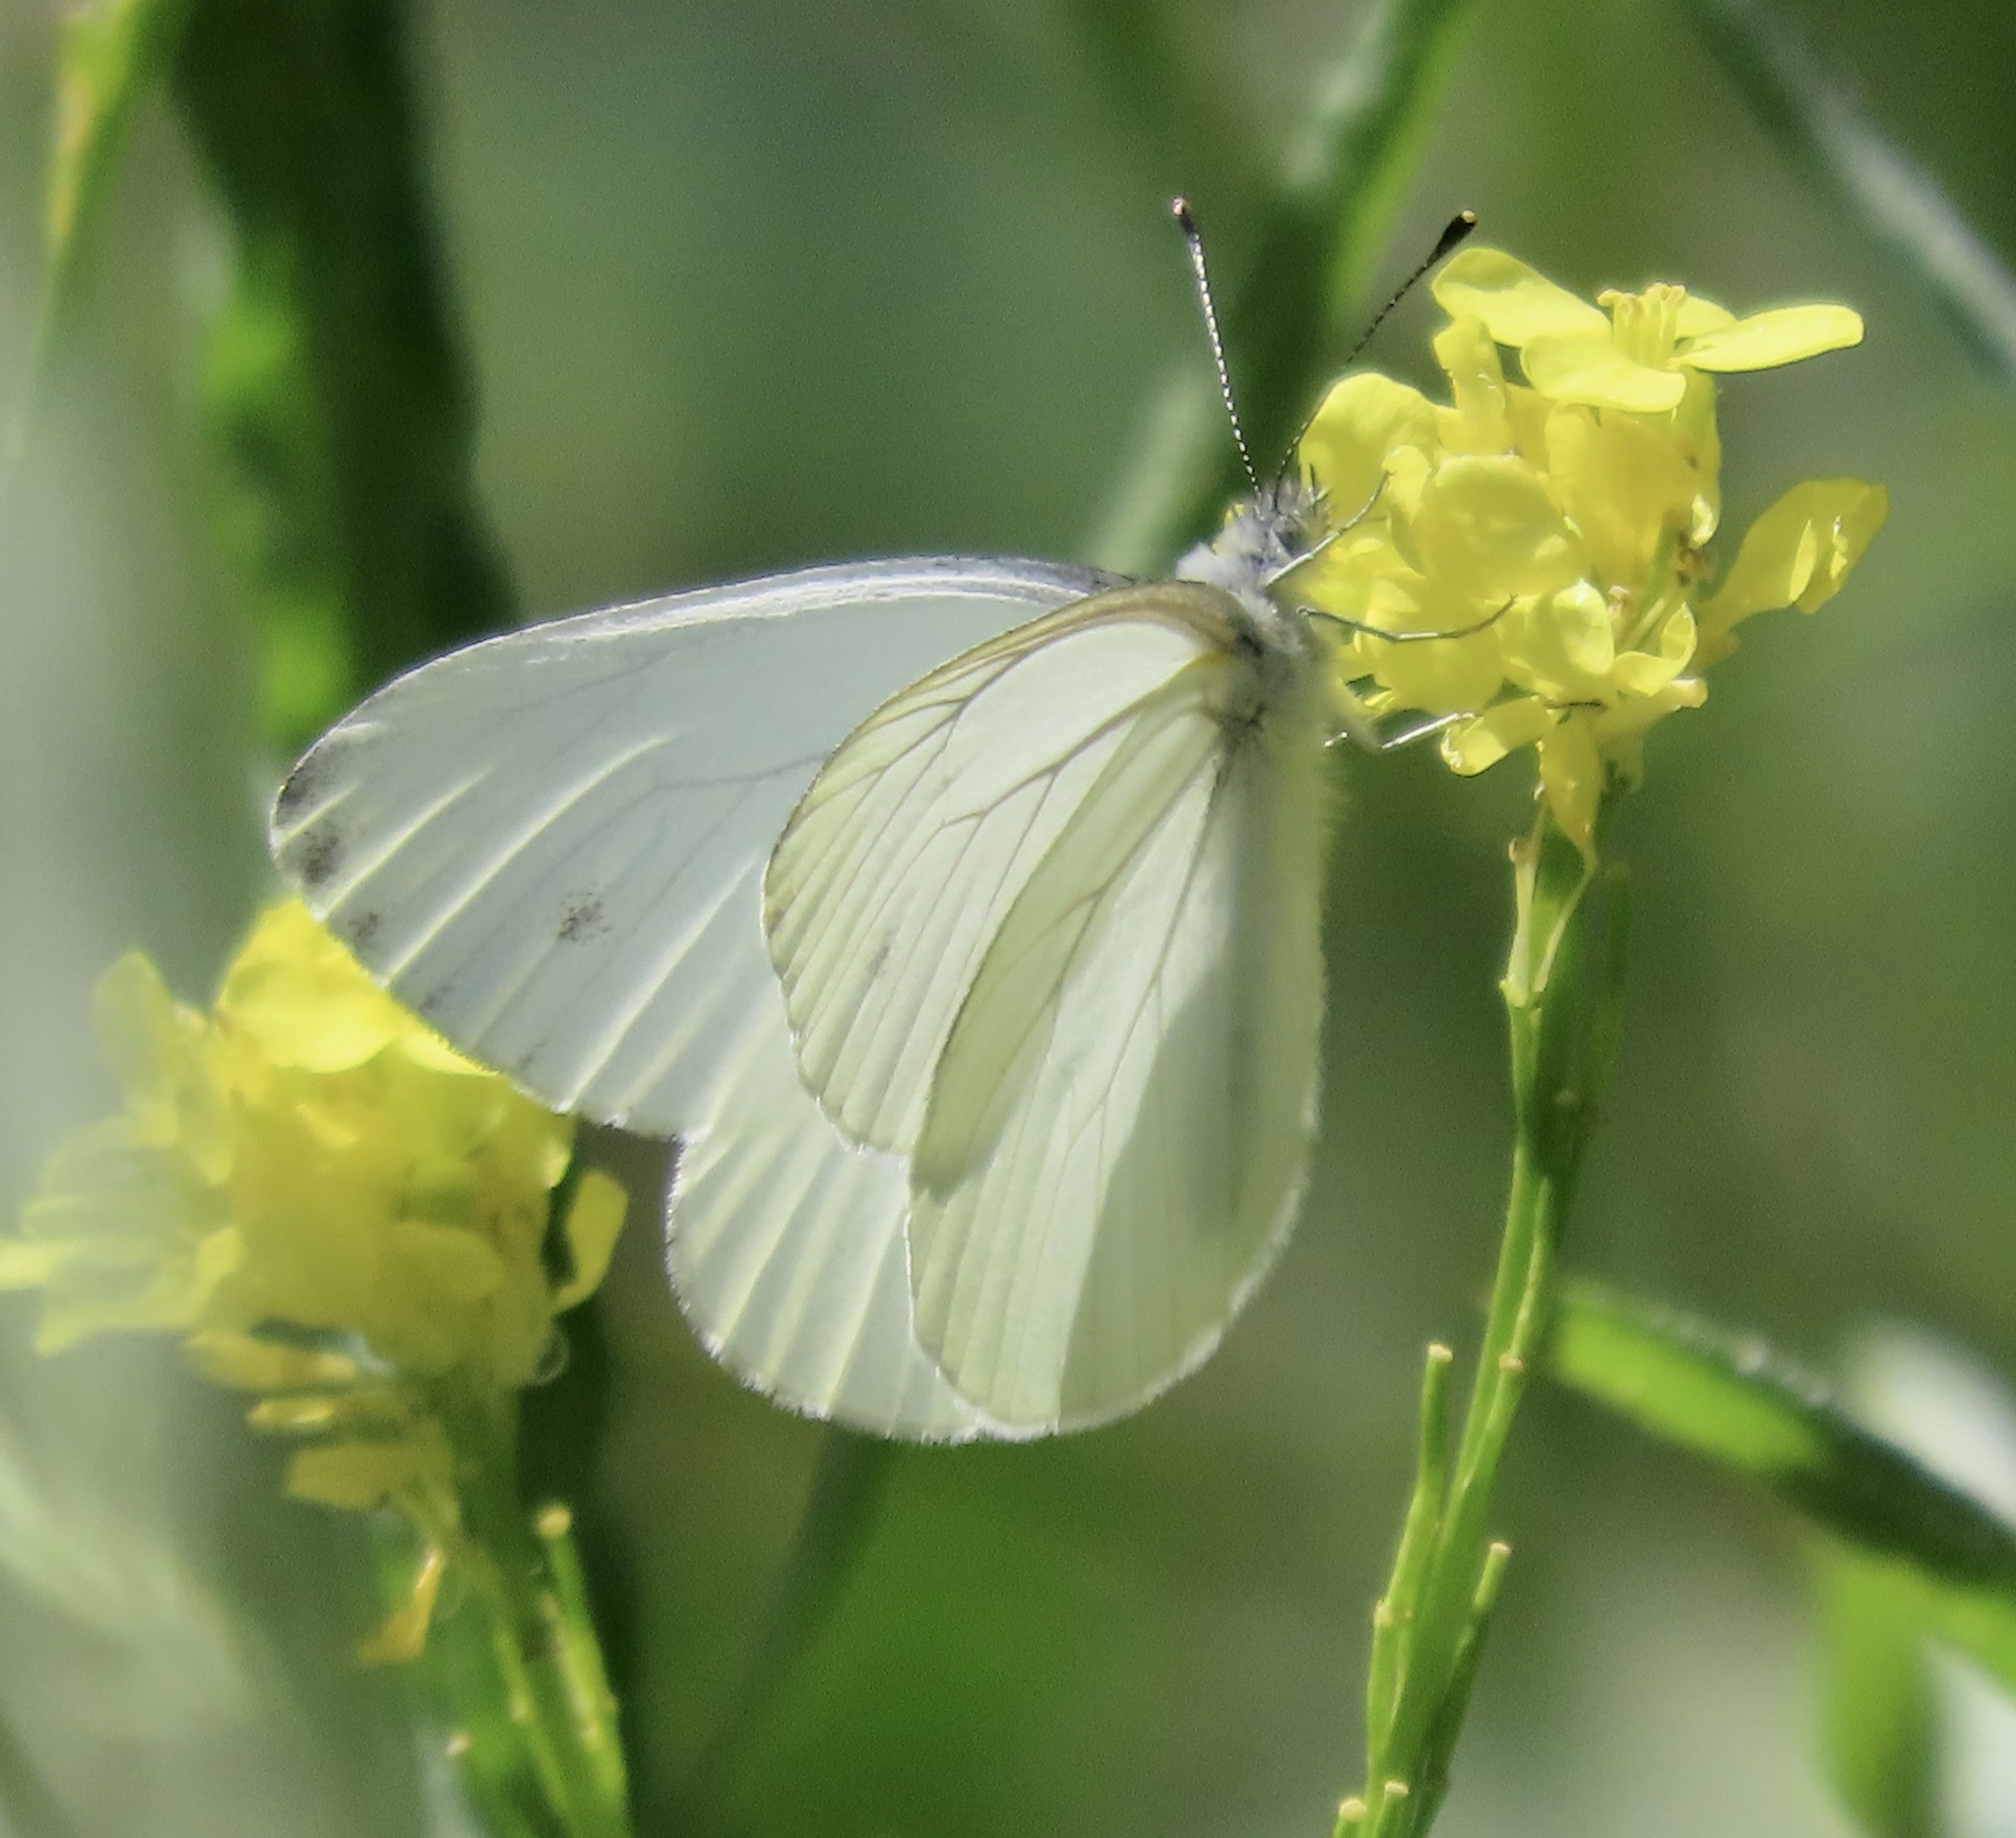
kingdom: Animalia
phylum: Arthropoda
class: Insecta
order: Lepidoptera
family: Pieridae
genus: Pieris
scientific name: Pieris marginalis
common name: Margined white
